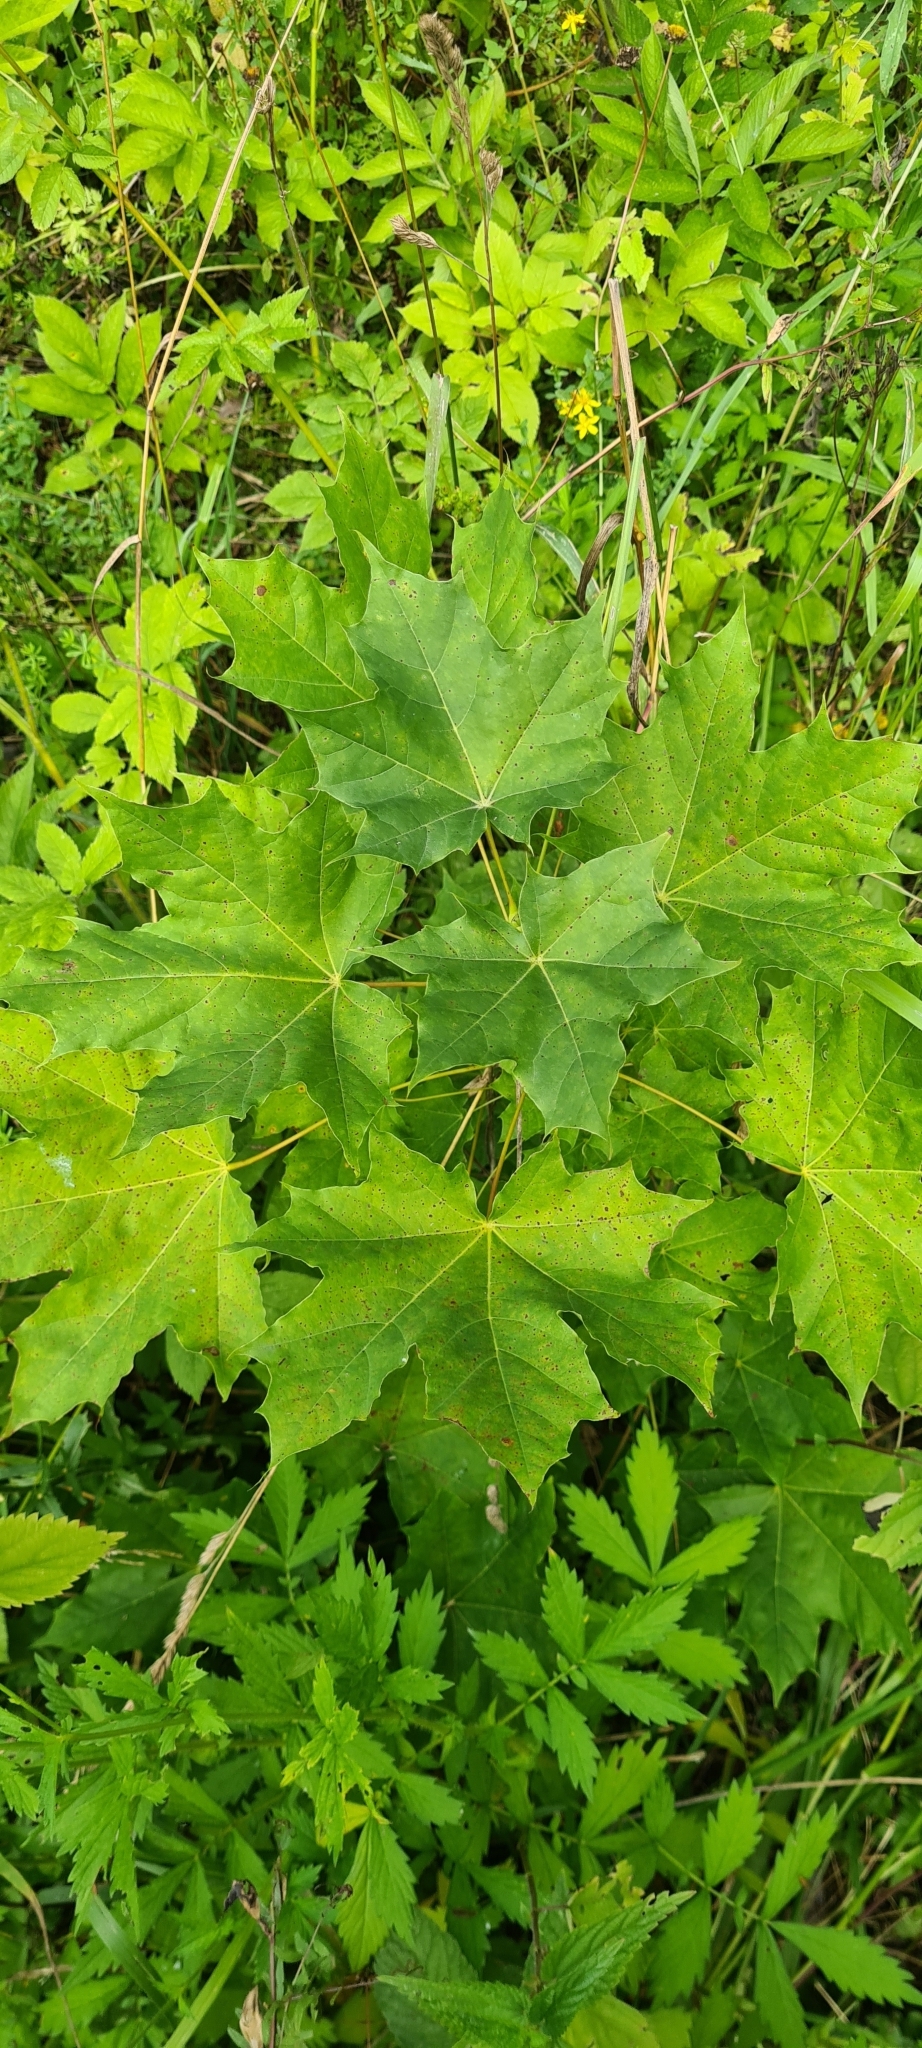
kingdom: Plantae
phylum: Tracheophyta
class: Magnoliopsida
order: Sapindales
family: Sapindaceae
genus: Acer
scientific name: Acer platanoides
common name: Norway maple
